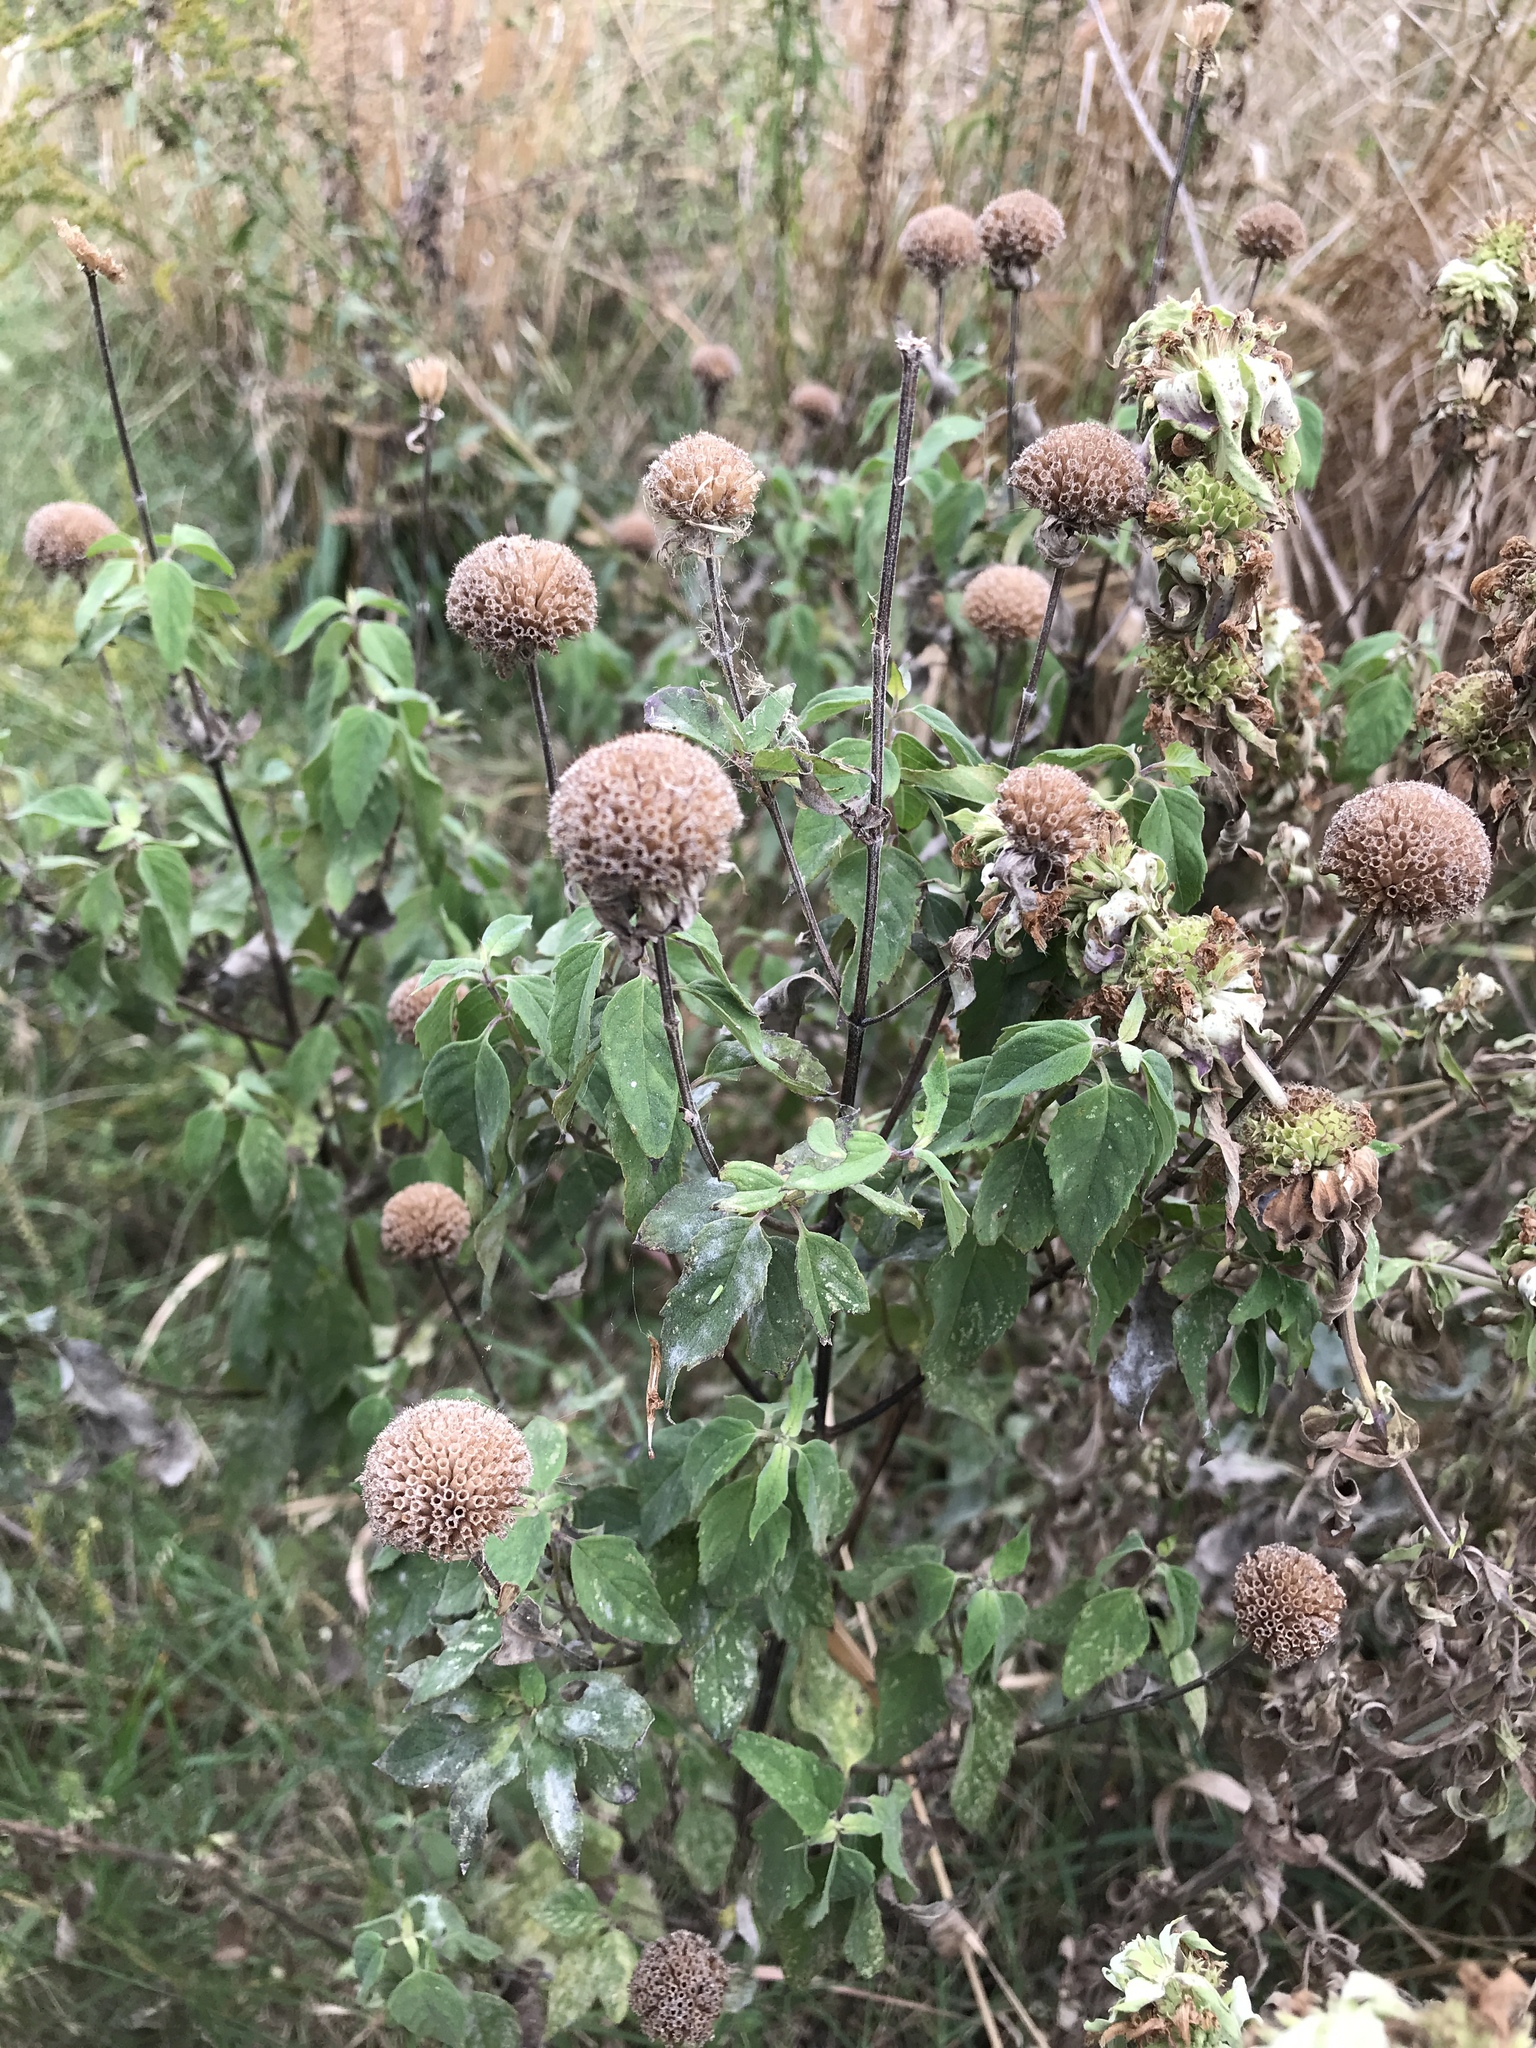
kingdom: Plantae
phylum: Tracheophyta
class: Magnoliopsida
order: Lamiales
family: Lamiaceae
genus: Monarda
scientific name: Monarda fistulosa
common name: Purple beebalm
